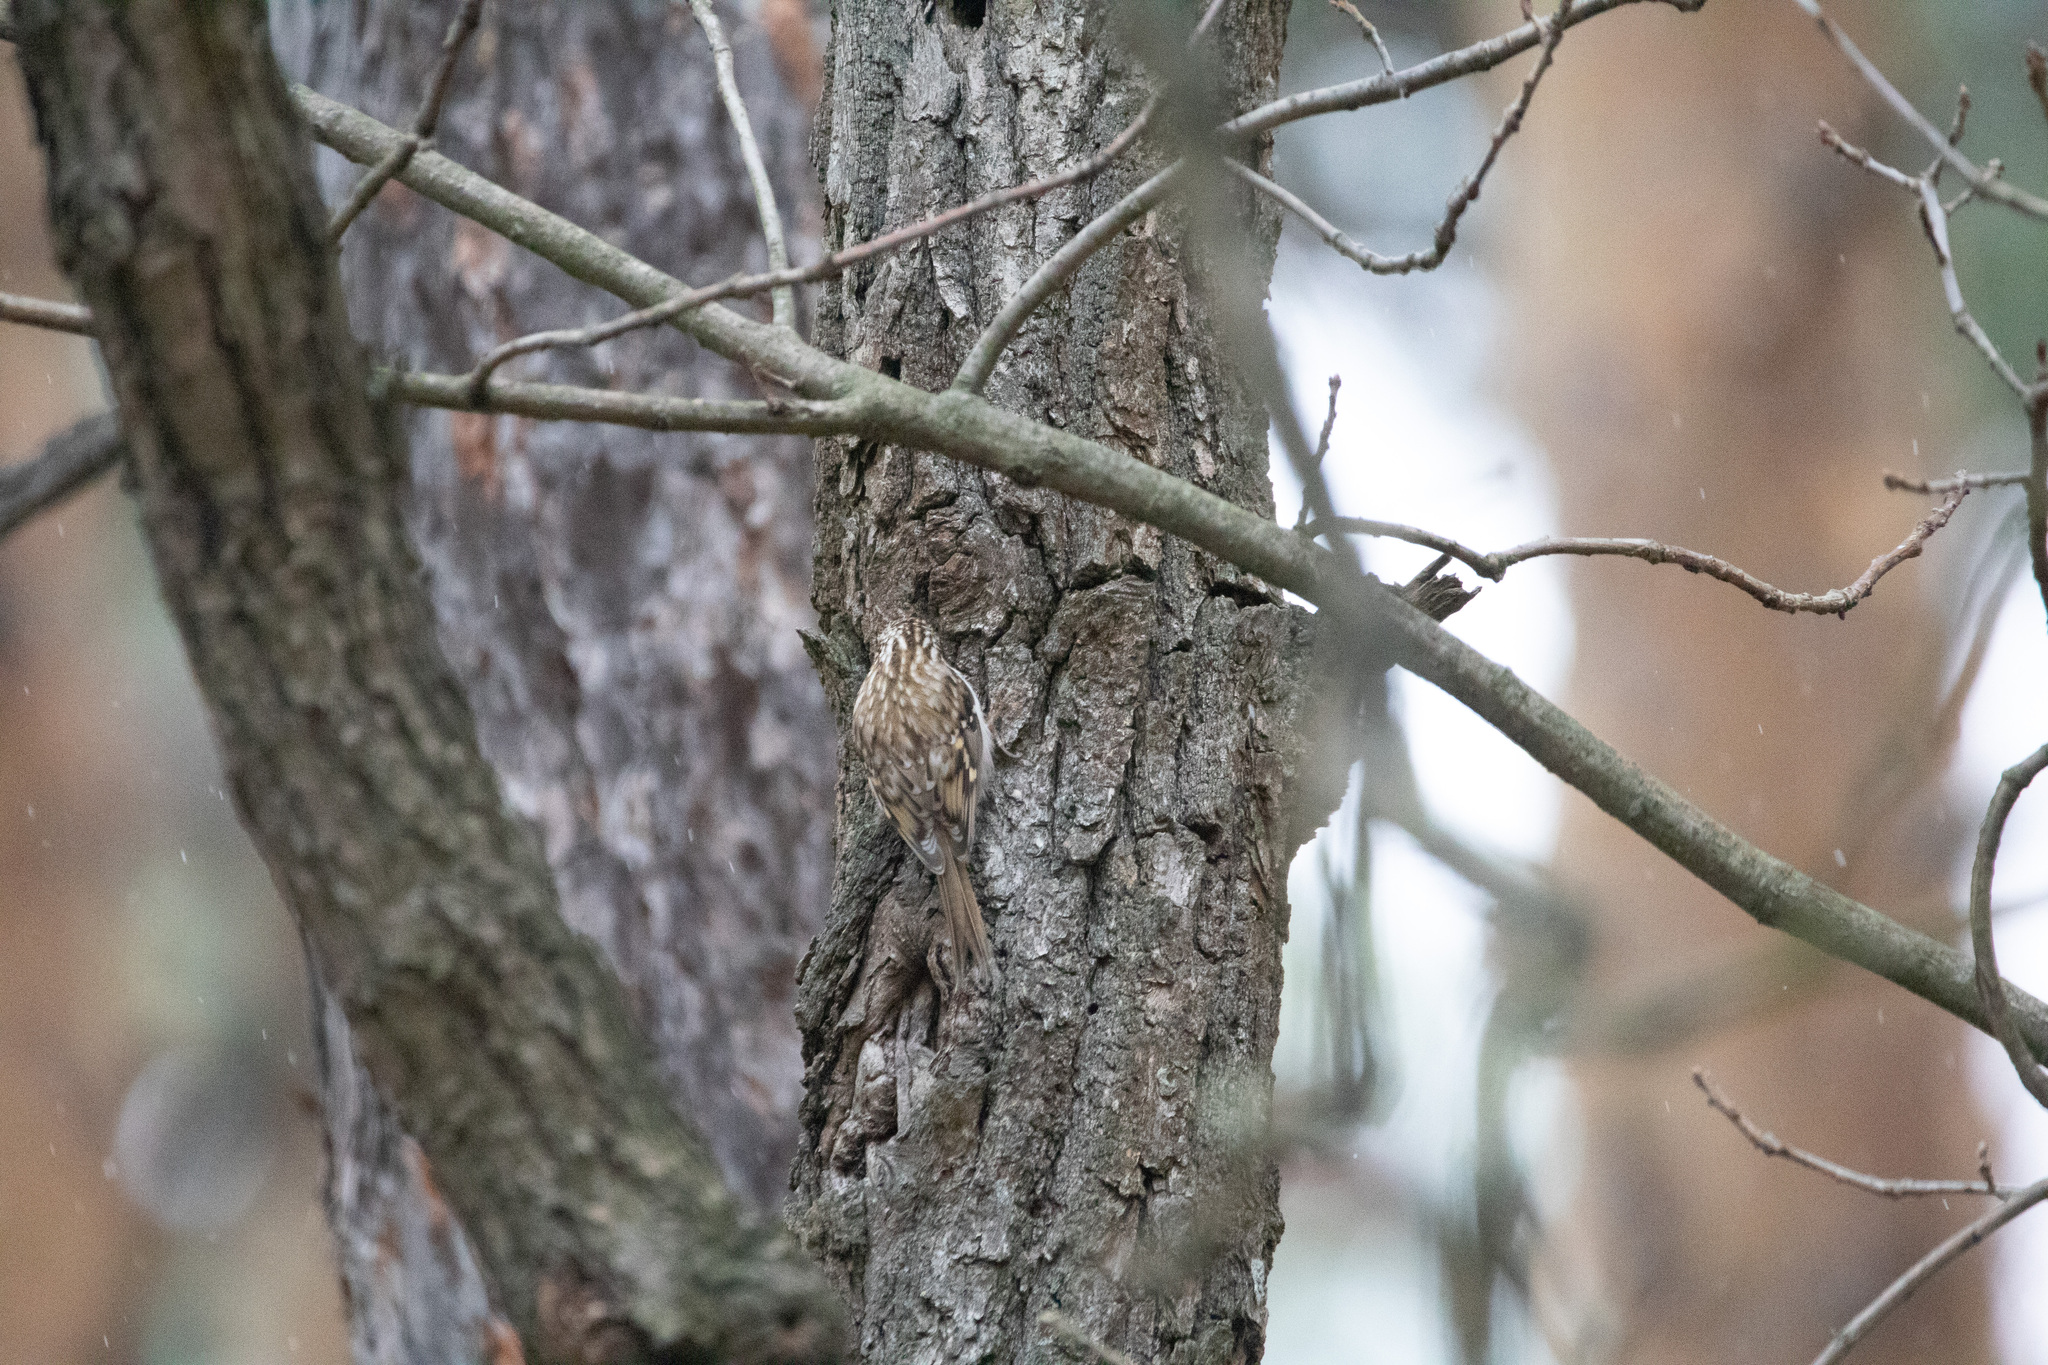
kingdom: Animalia
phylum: Chordata
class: Aves
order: Passeriformes
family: Certhiidae
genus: Certhia
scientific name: Certhia familiaris
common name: Eurasian treecreeper
